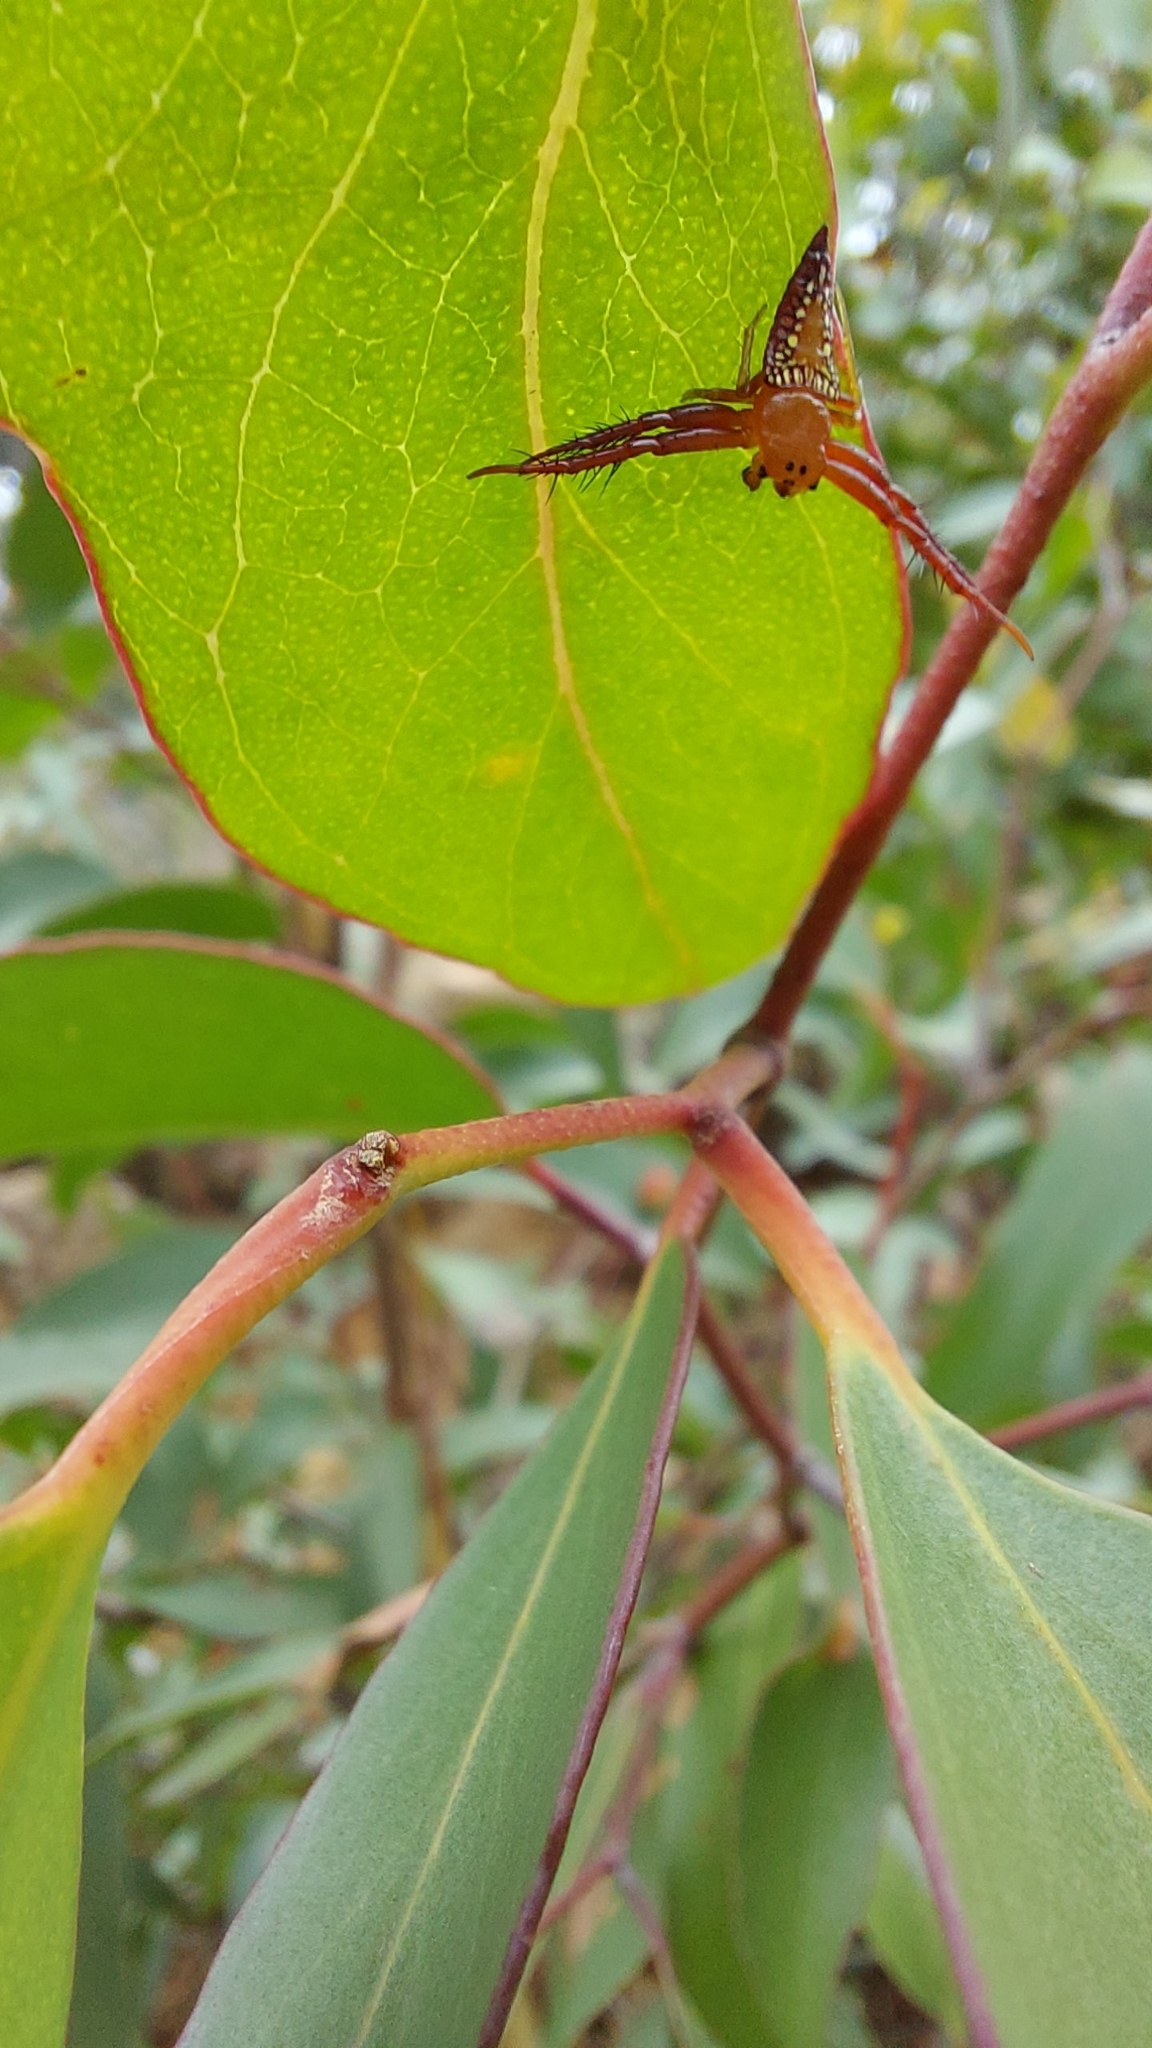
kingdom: Animalia
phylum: Arthropoda
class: Arachnida
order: Araneae
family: Arkyidae
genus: Arkys
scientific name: Arkys walckenaeri
